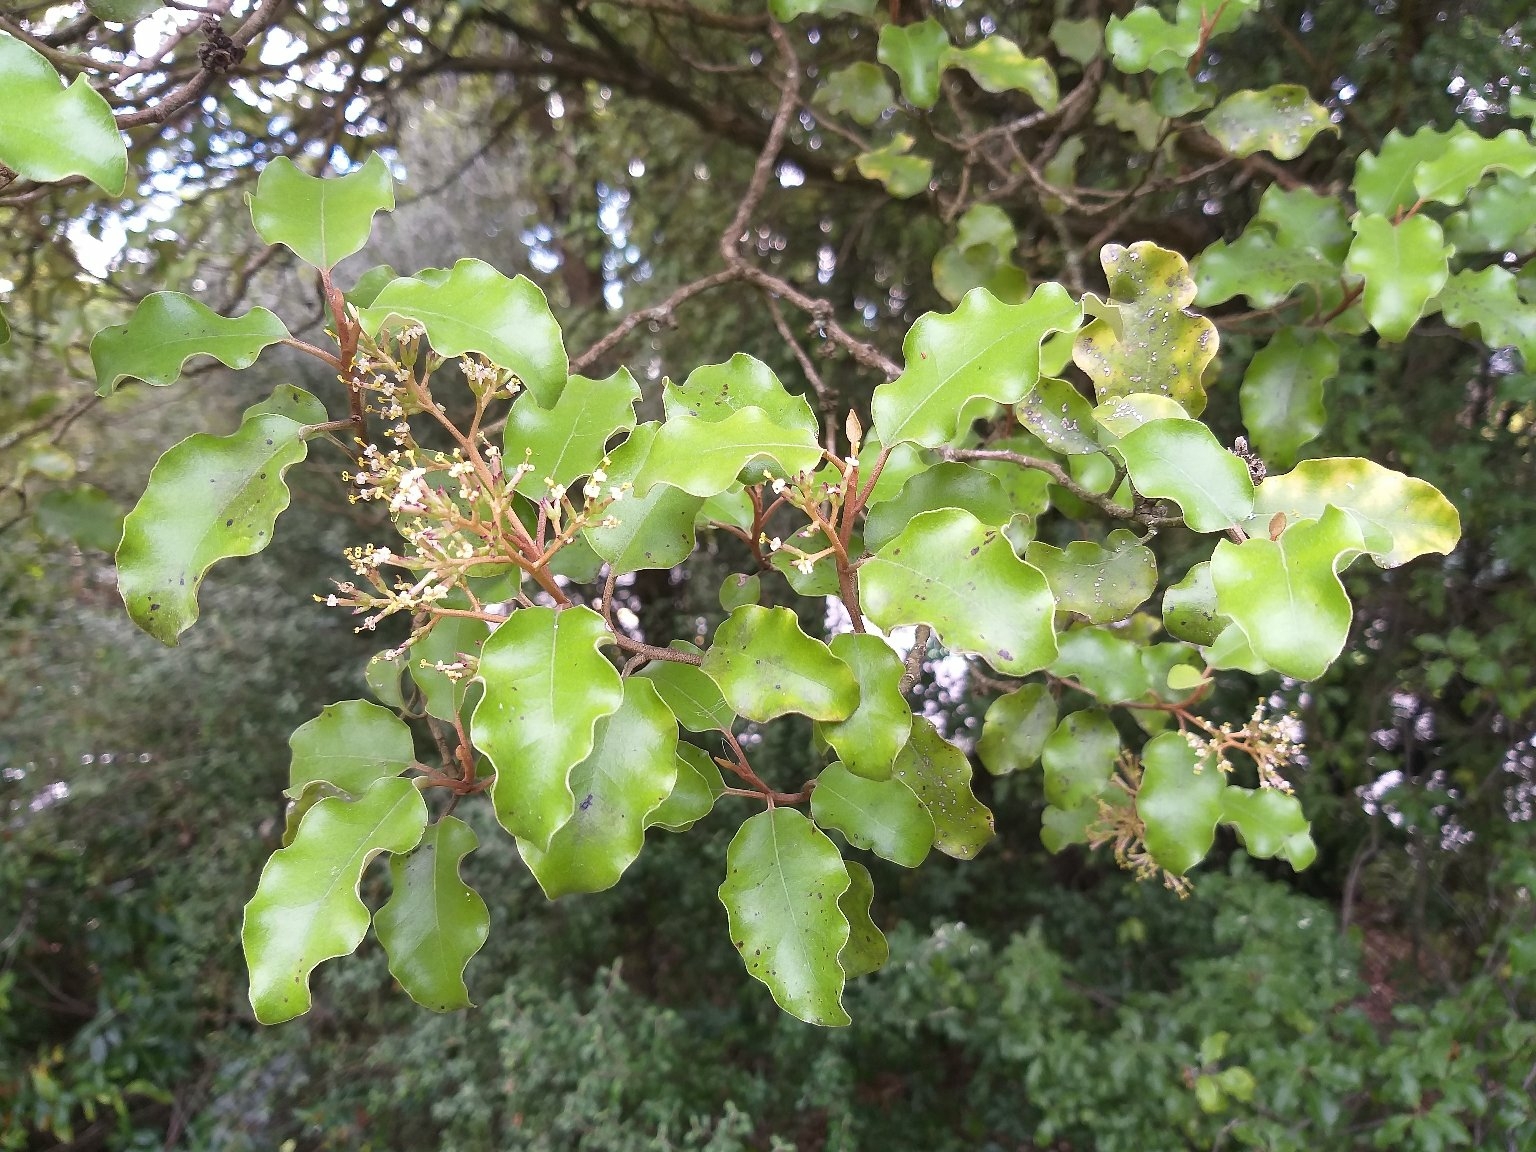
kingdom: Plantae
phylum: Tracheophyta
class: Magnoliopsida
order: Asterales
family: Asteraceae
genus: Olearia
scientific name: Olearia paniculata
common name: Akiraho
